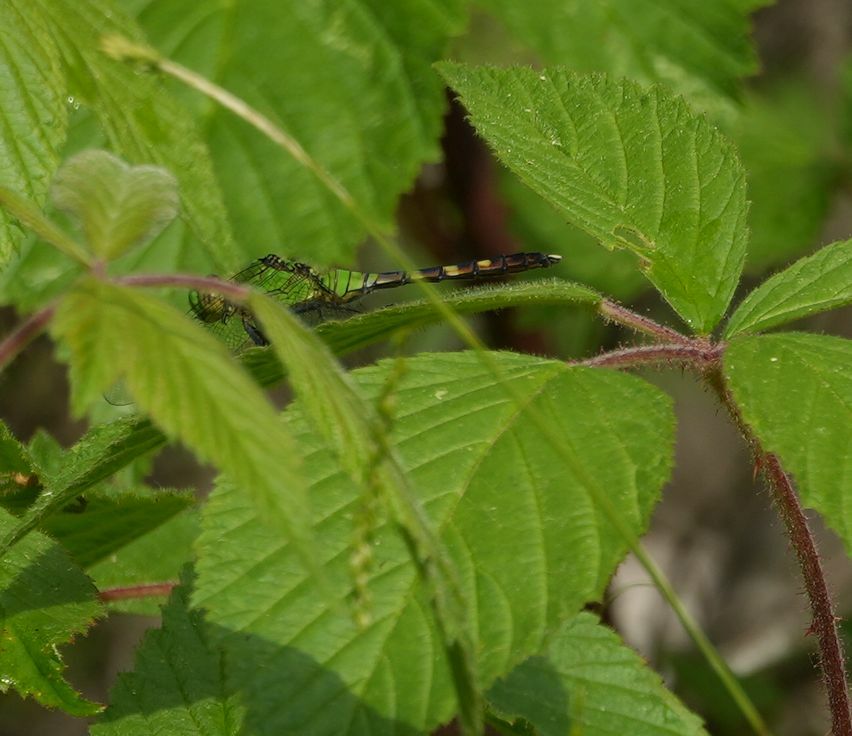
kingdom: Animalia
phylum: Arthropoda
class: Insecta
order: Odonata
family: Libellulidae
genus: Erythemis
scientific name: Erythemis simplicicollis
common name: Eastern pondhawk
